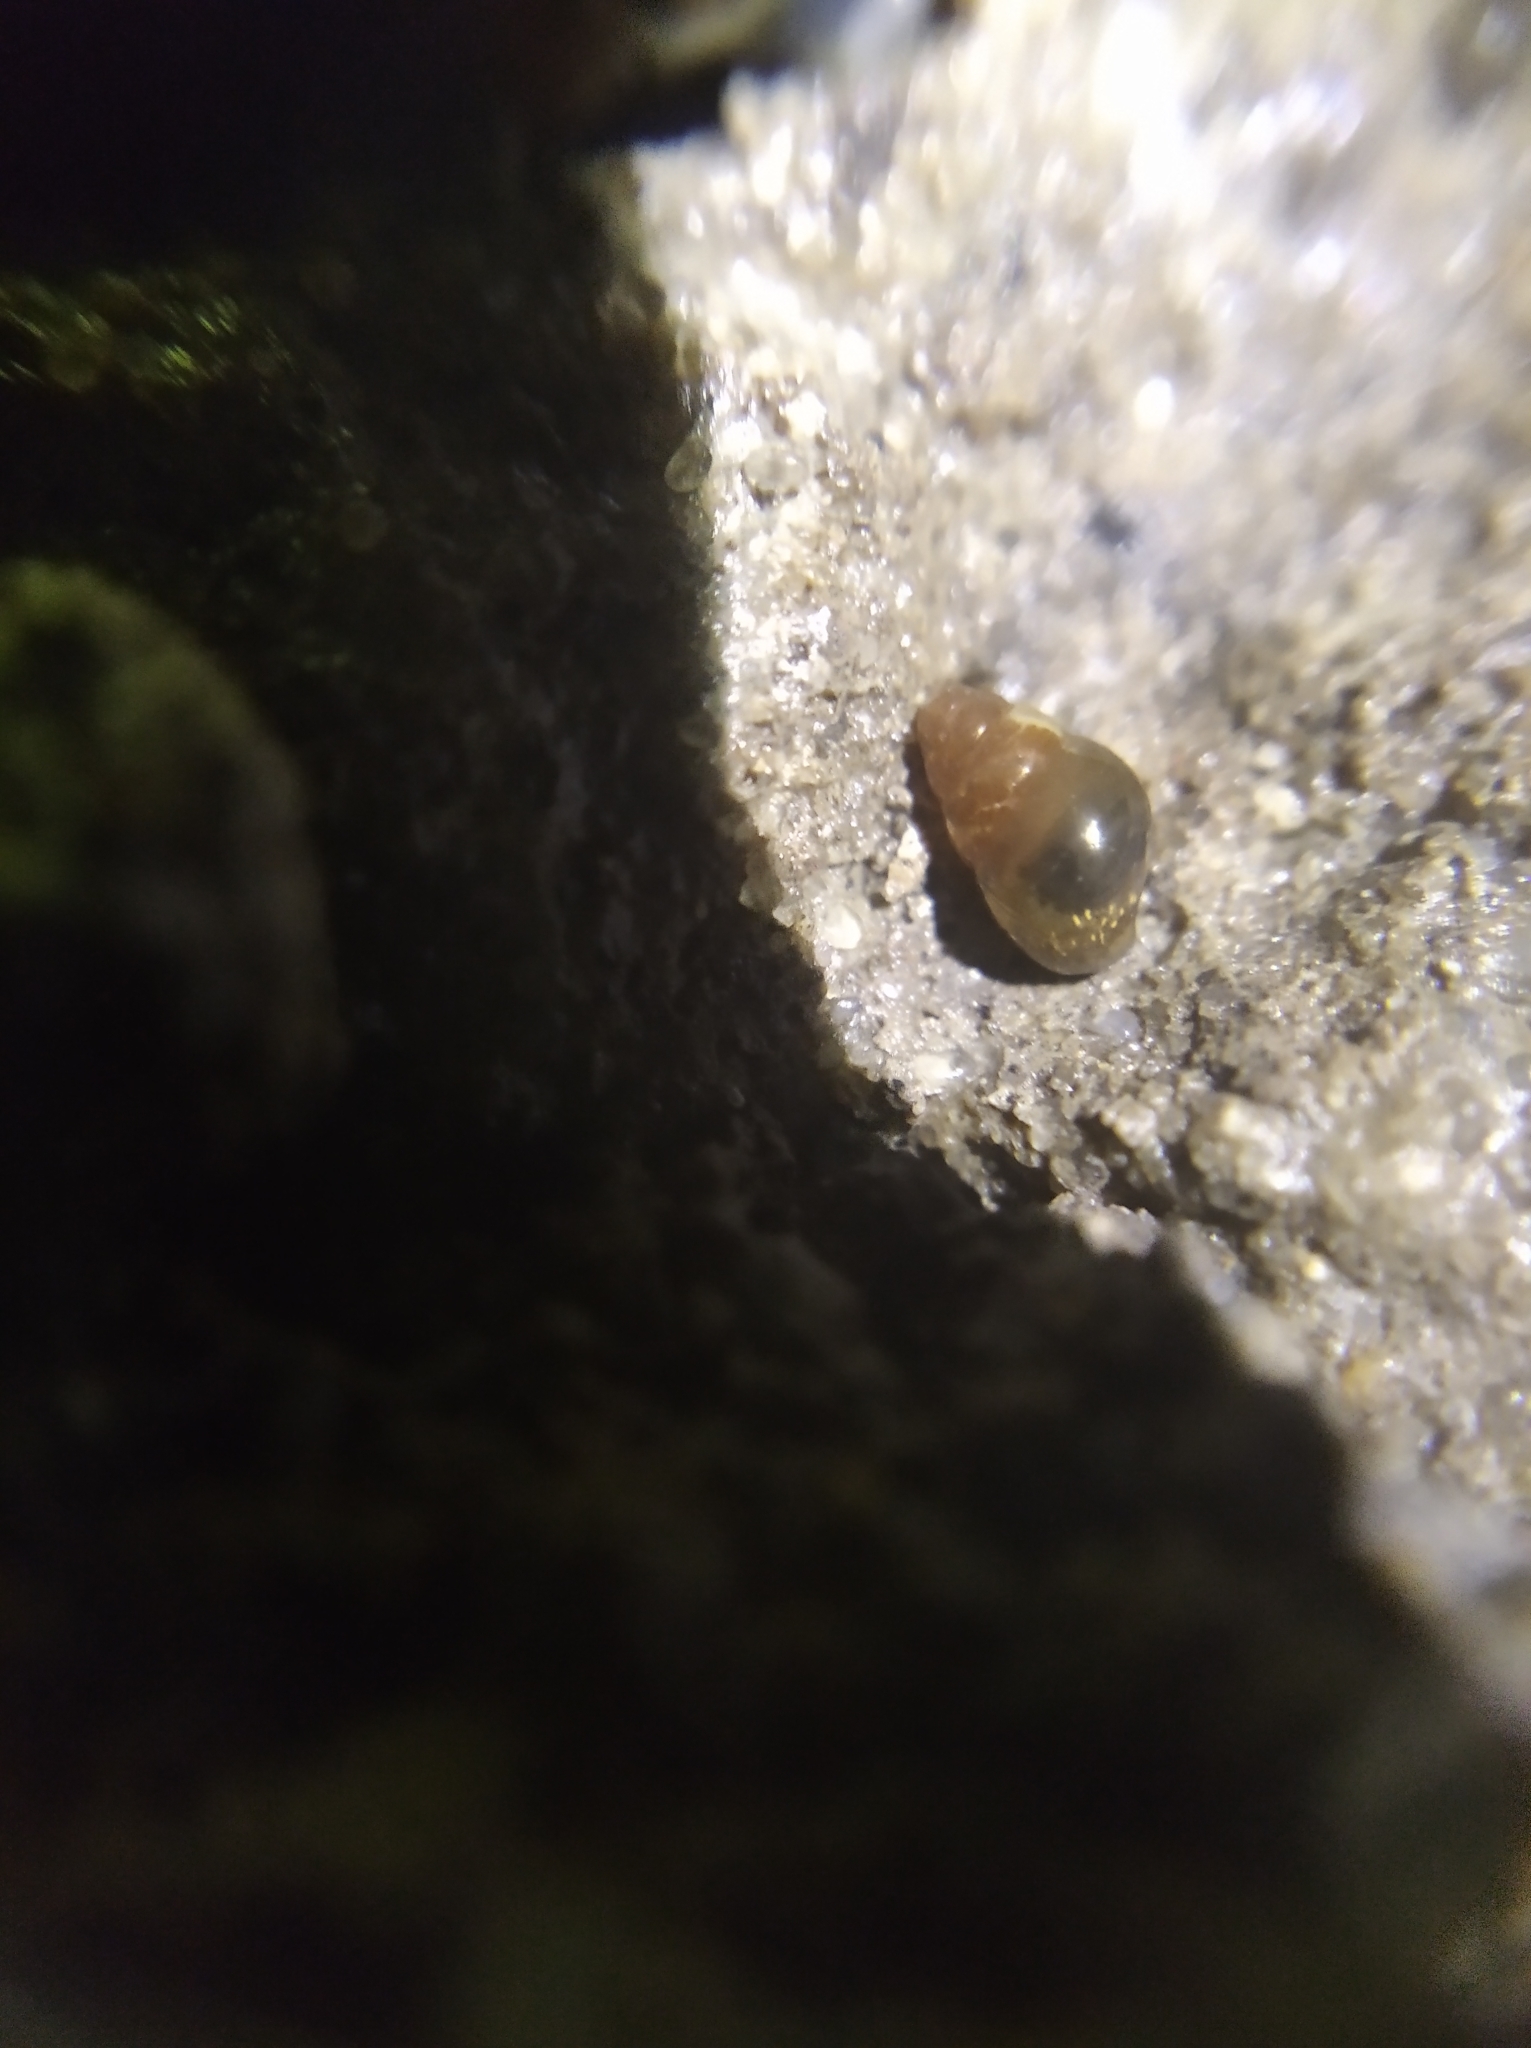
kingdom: Animalia
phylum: Mollusca
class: Gastropoda
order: Stylommatophora
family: Cochlicopidae
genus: Cochlicopa
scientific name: Cochlicopa lubrica
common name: Glossy pillar snail
